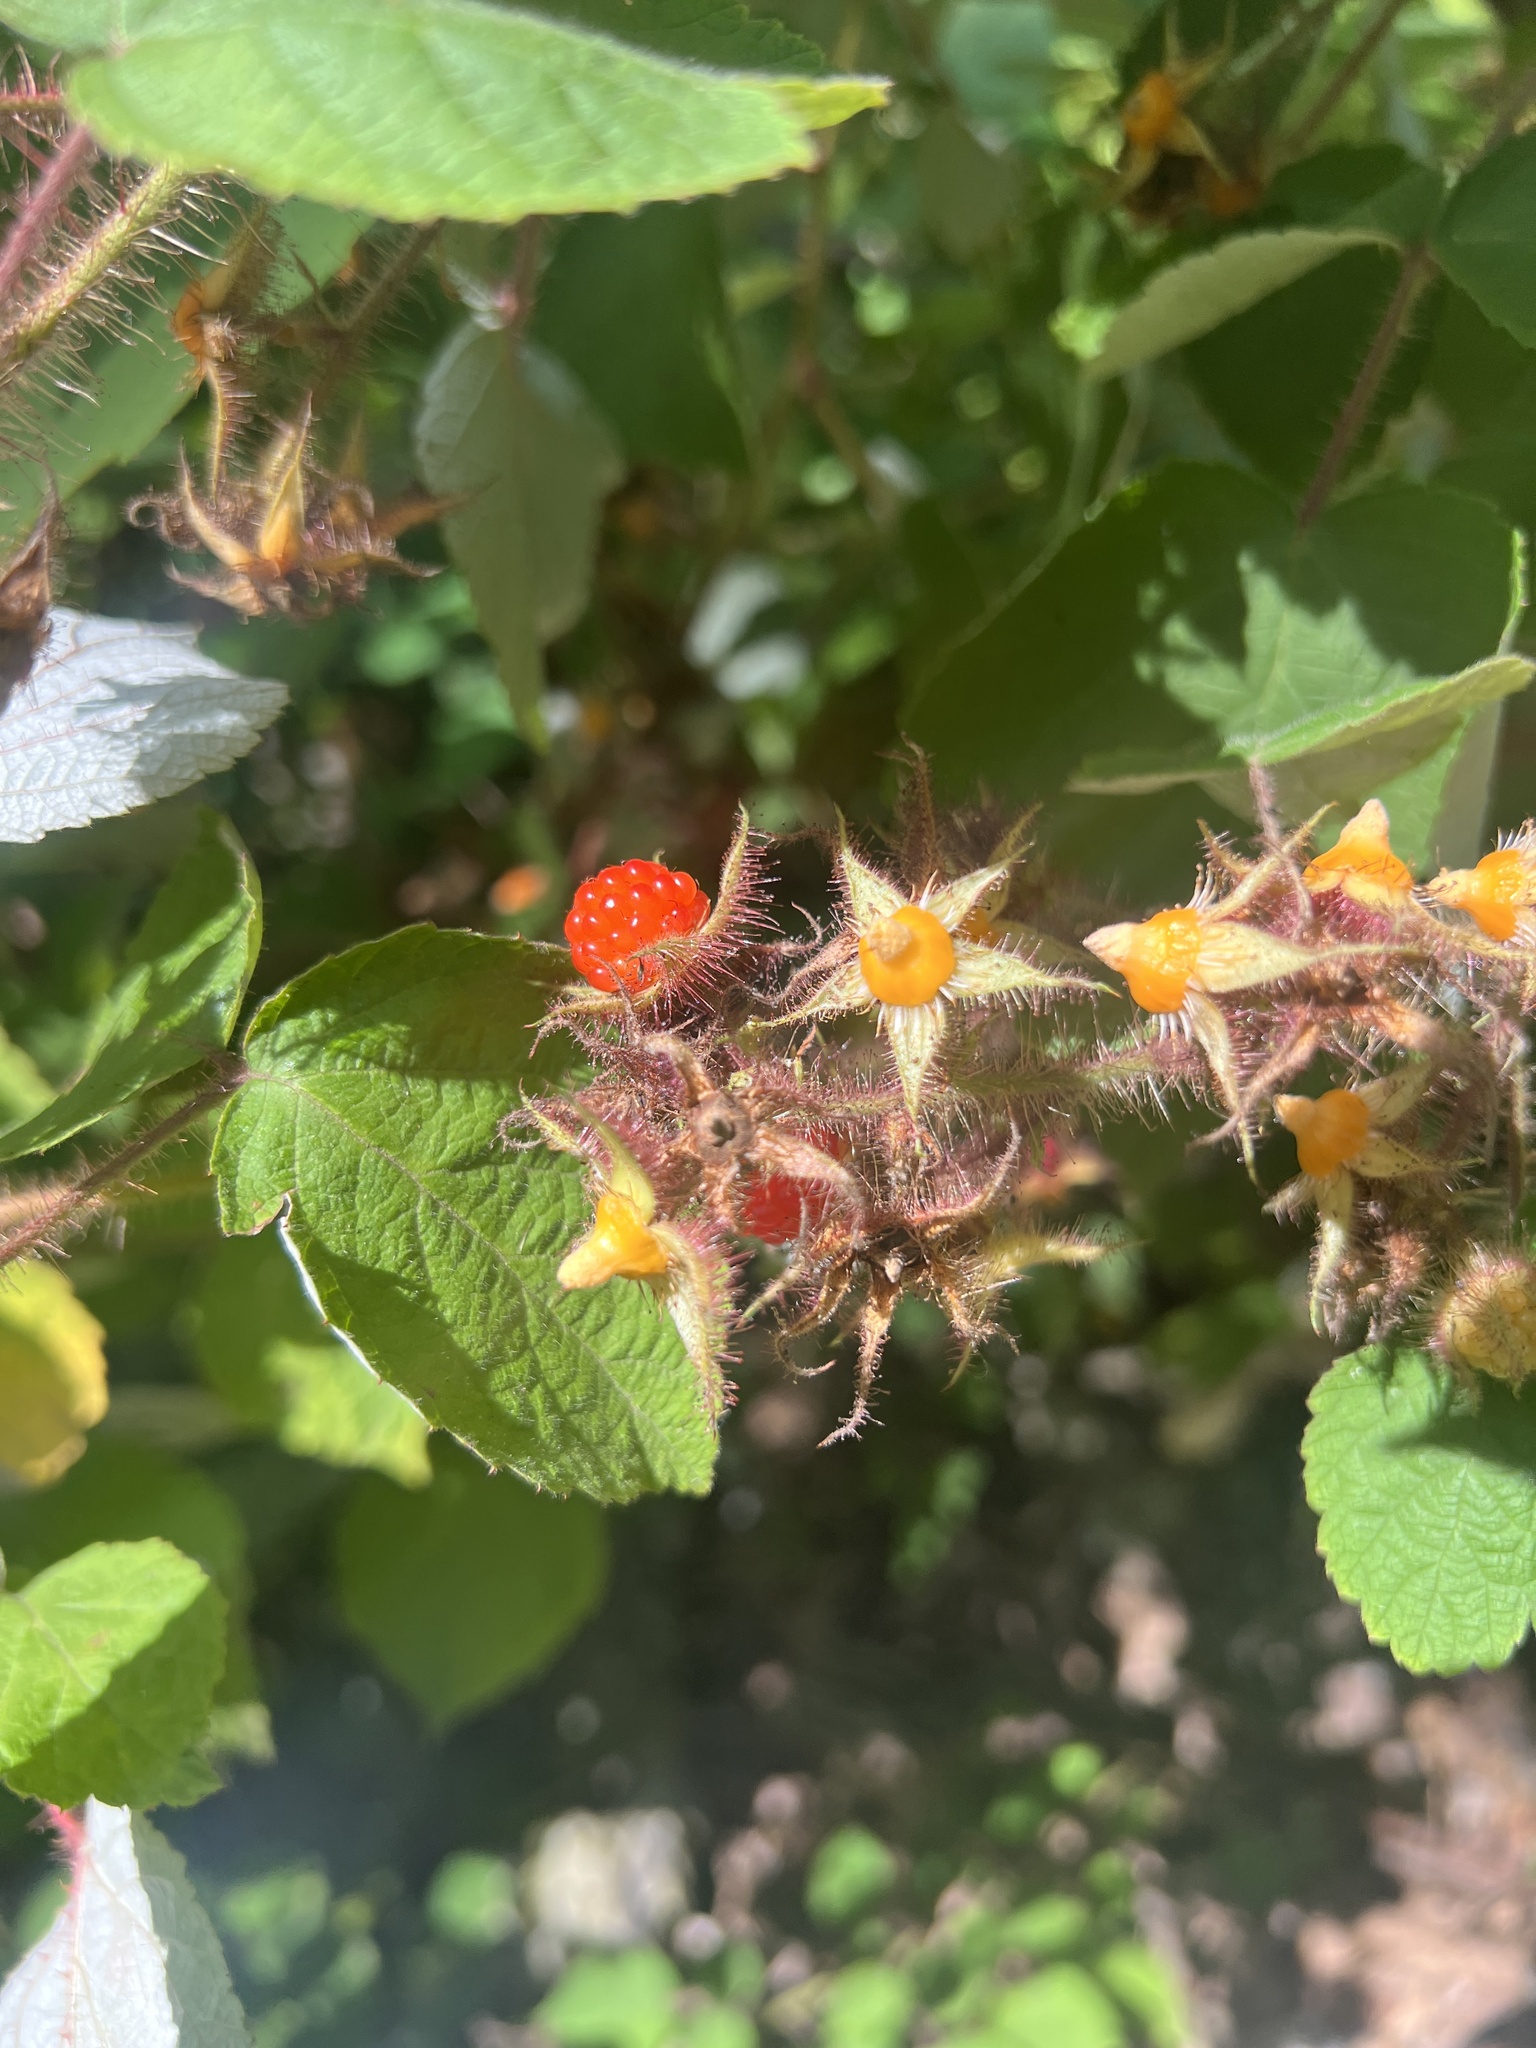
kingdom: Plantae
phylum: Tracheophyta
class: Magnoliopsida
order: Rosales
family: Rosaceae
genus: Rubus
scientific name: Rubus phoenicolasius
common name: Japanese wineberry
